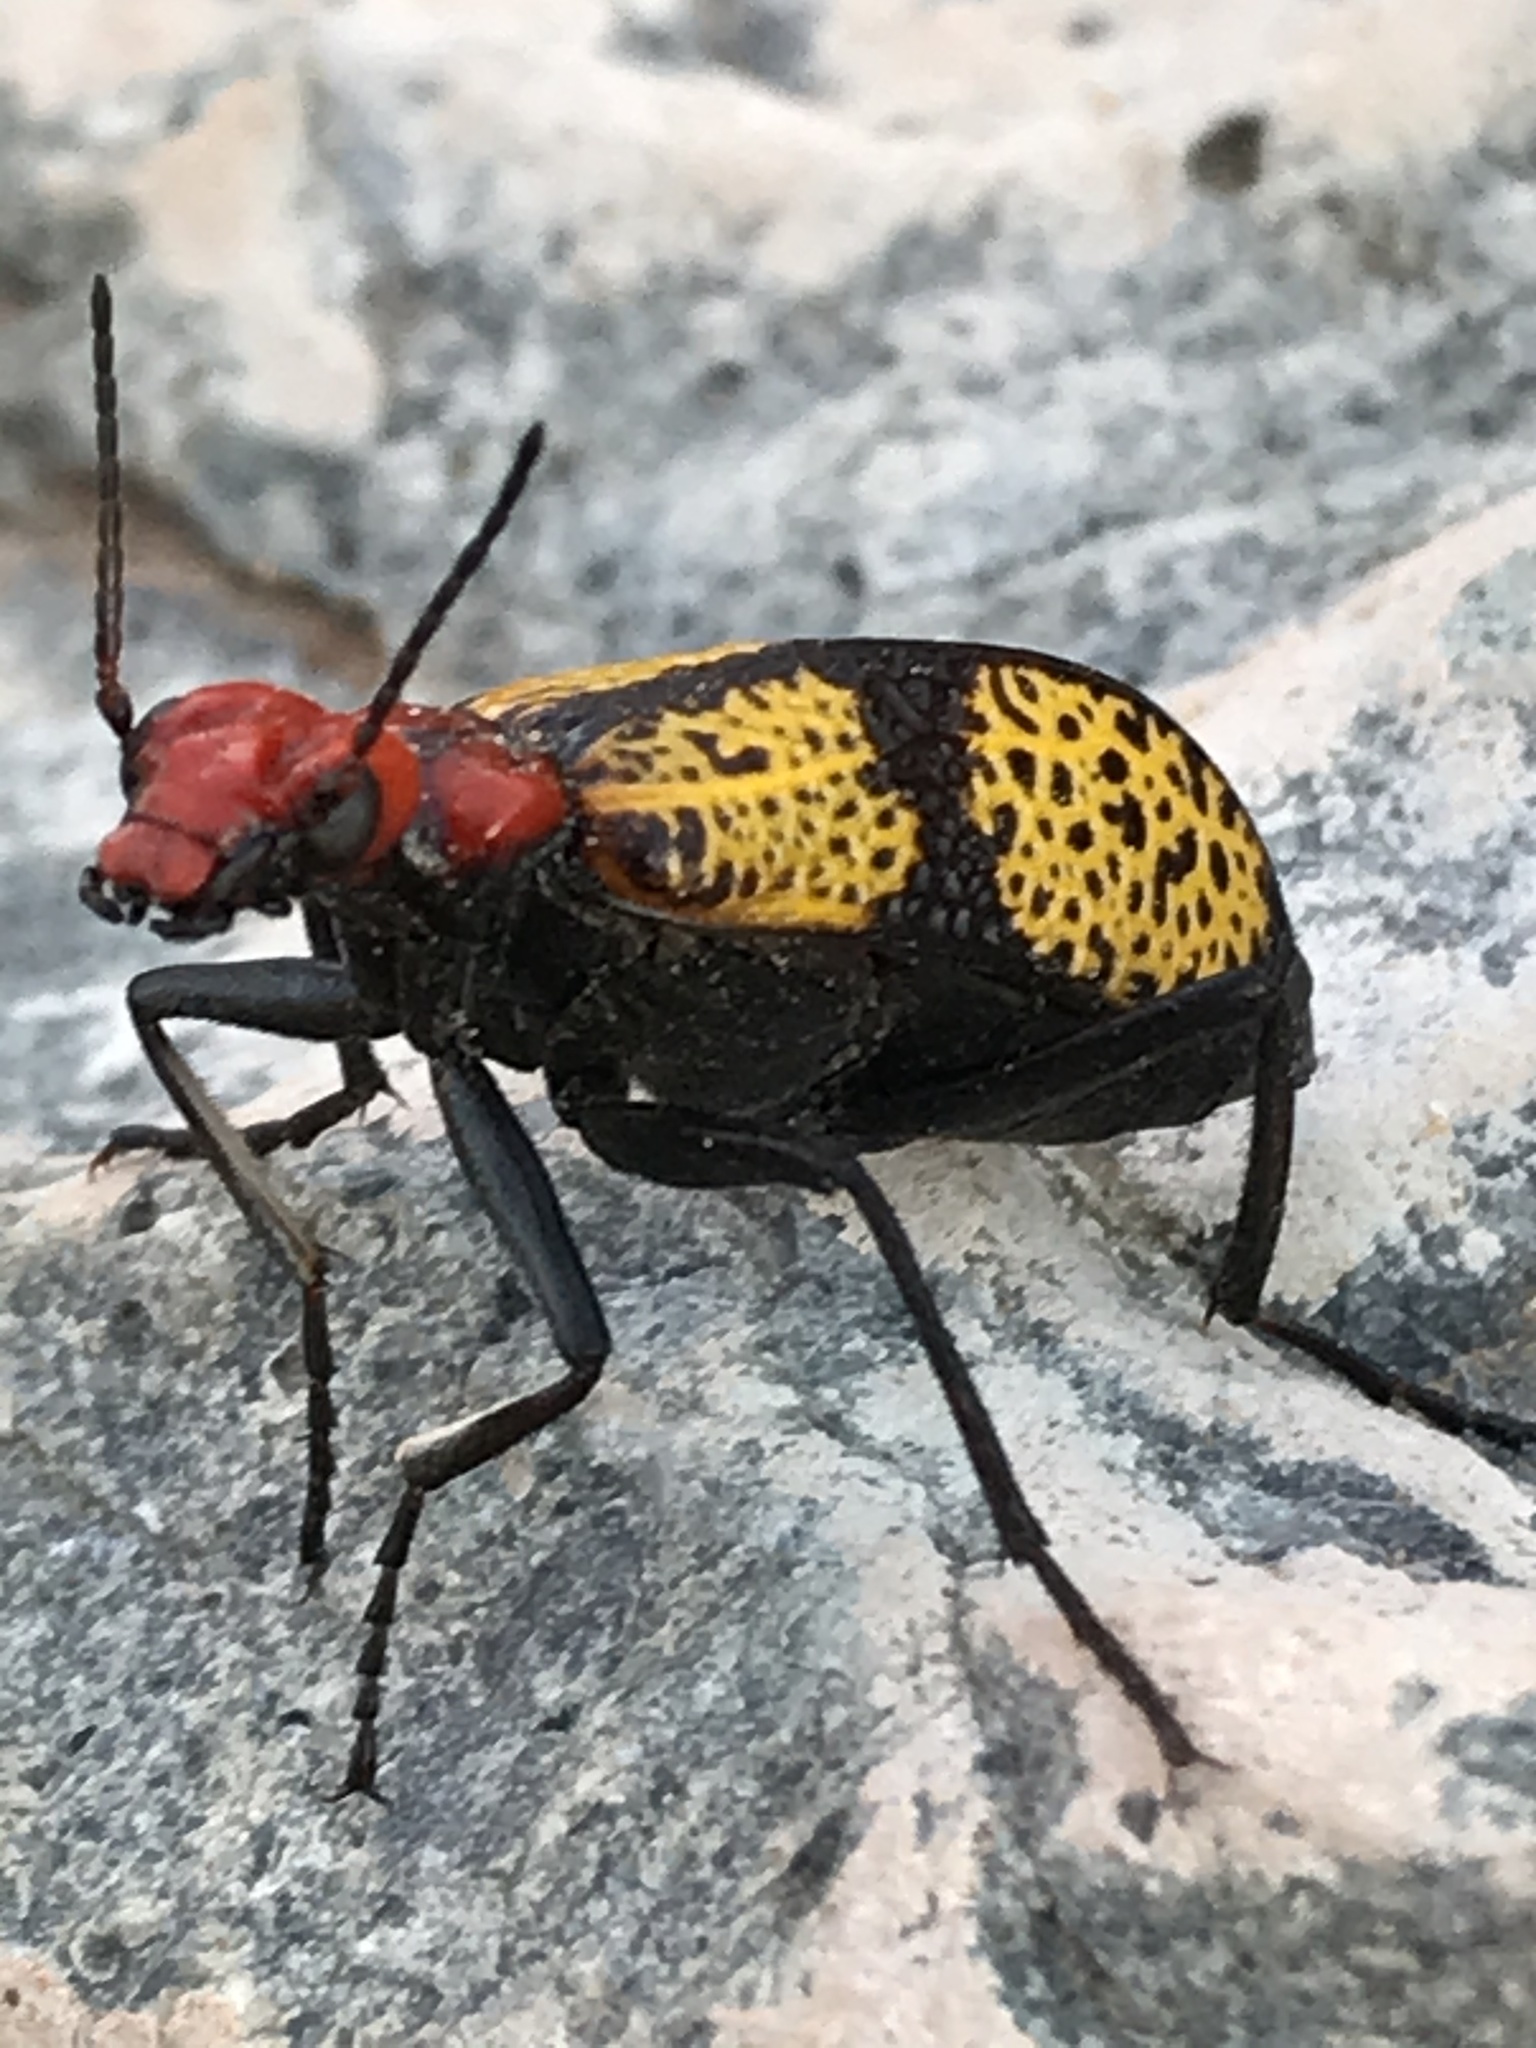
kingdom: Animalia
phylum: Arthropoda
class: Insecta
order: Coleoptera
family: Meloidae
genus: Tegrodera
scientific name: Tegrodera aloga
